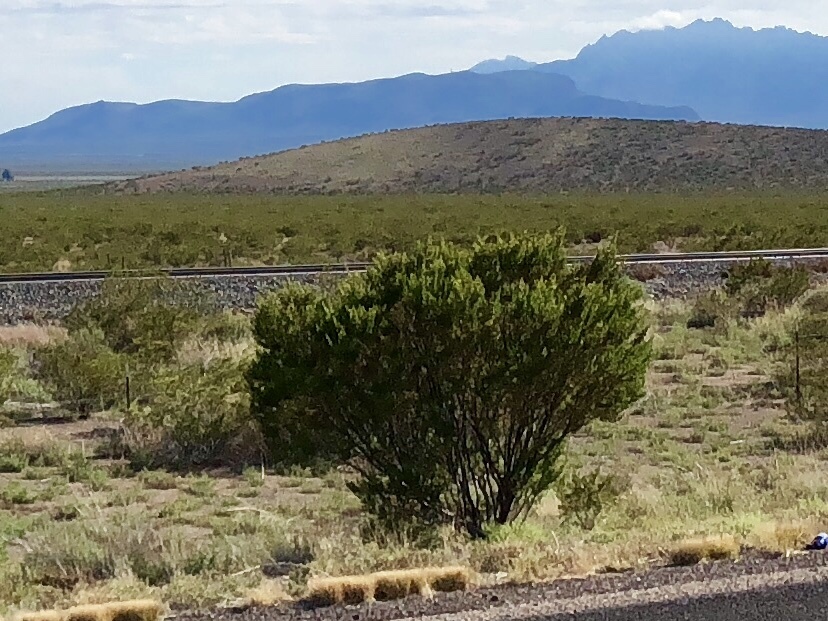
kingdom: Plantae
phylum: Tracheophyta
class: Magnoliopsida
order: Zygophyllales
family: Zygophyllaceae
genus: Larrea
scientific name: Larrea tridentata
